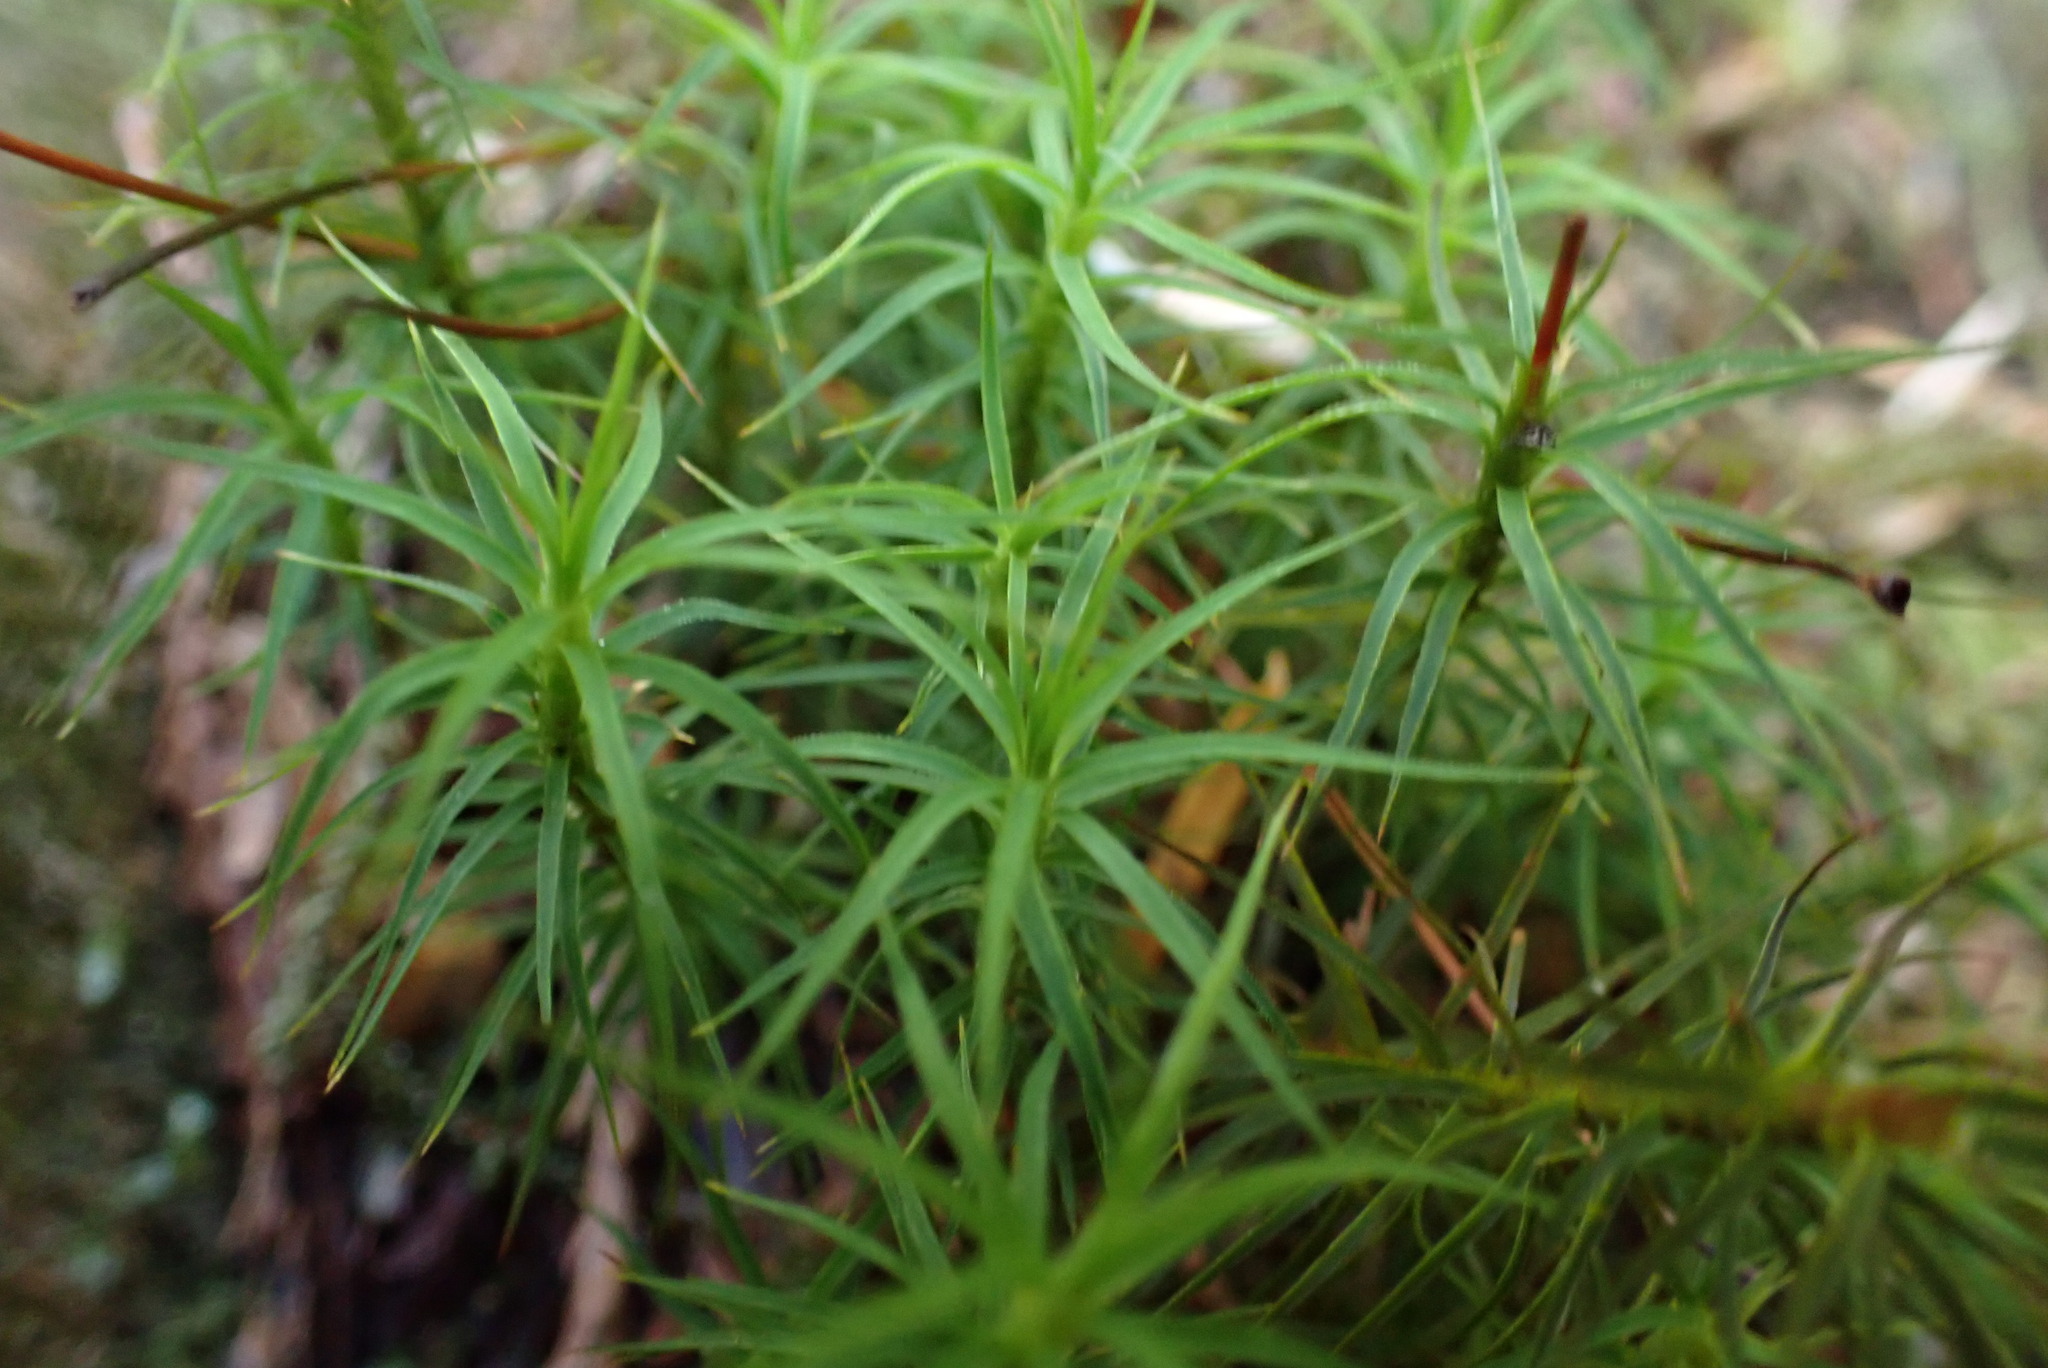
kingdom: Plantae
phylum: Bryophyta
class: Polytrichopsida
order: Polytrichales
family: Polytrichaceae
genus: Polytrichastrum
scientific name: Polytrichastrum alpinum
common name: Alpine haircap
